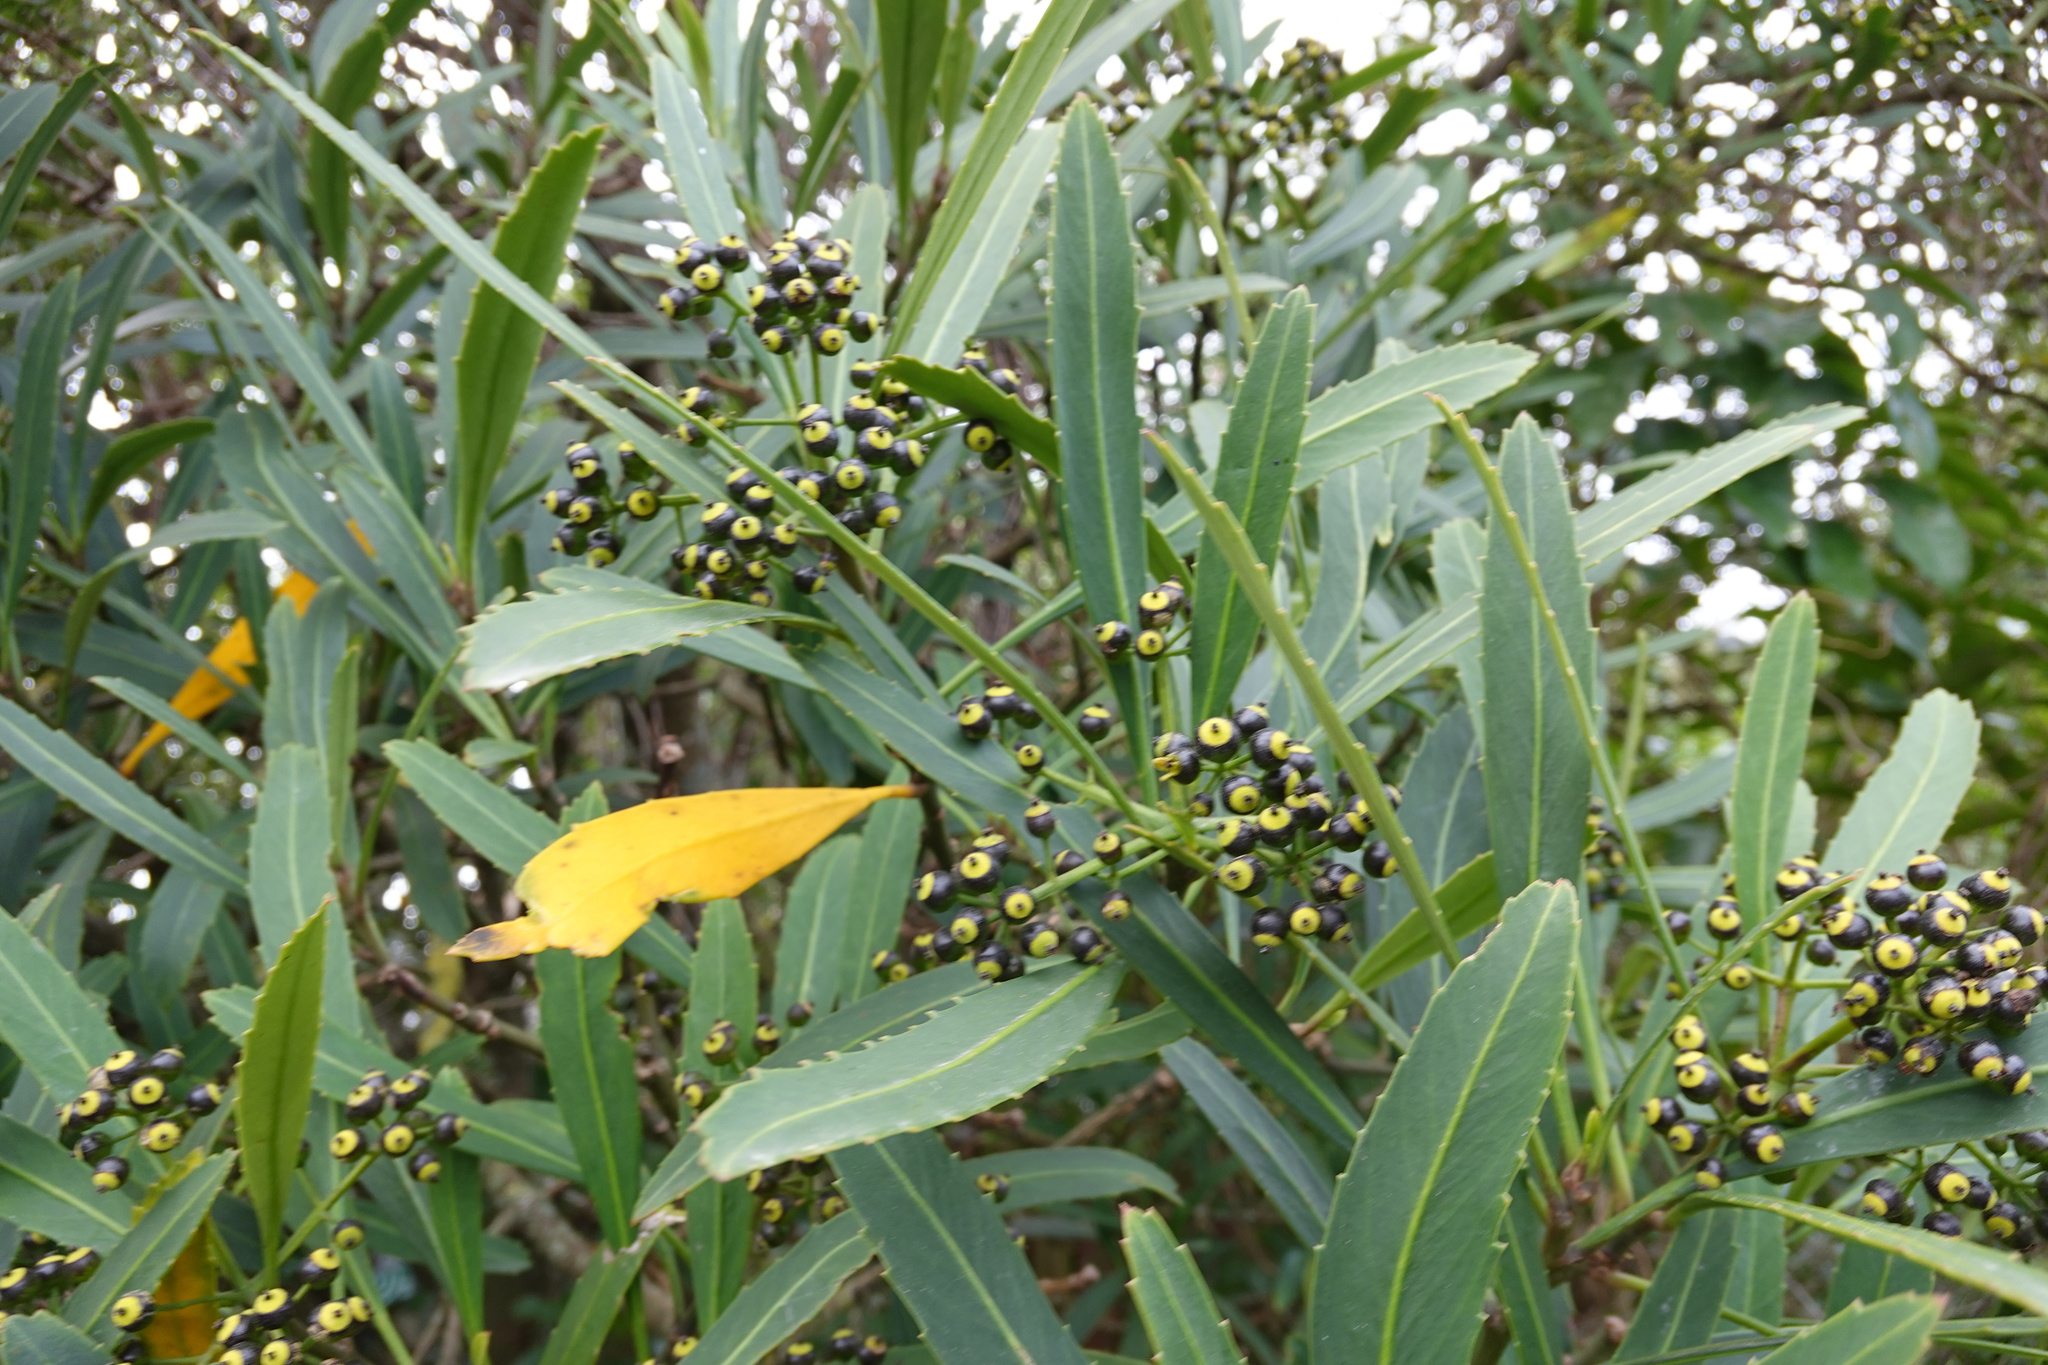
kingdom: Plantae
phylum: Tracheophyta
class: Magnoliopsida
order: Apiales
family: Araliaceae
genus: Pseudopanax
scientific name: Pseudopanax crassifolius
